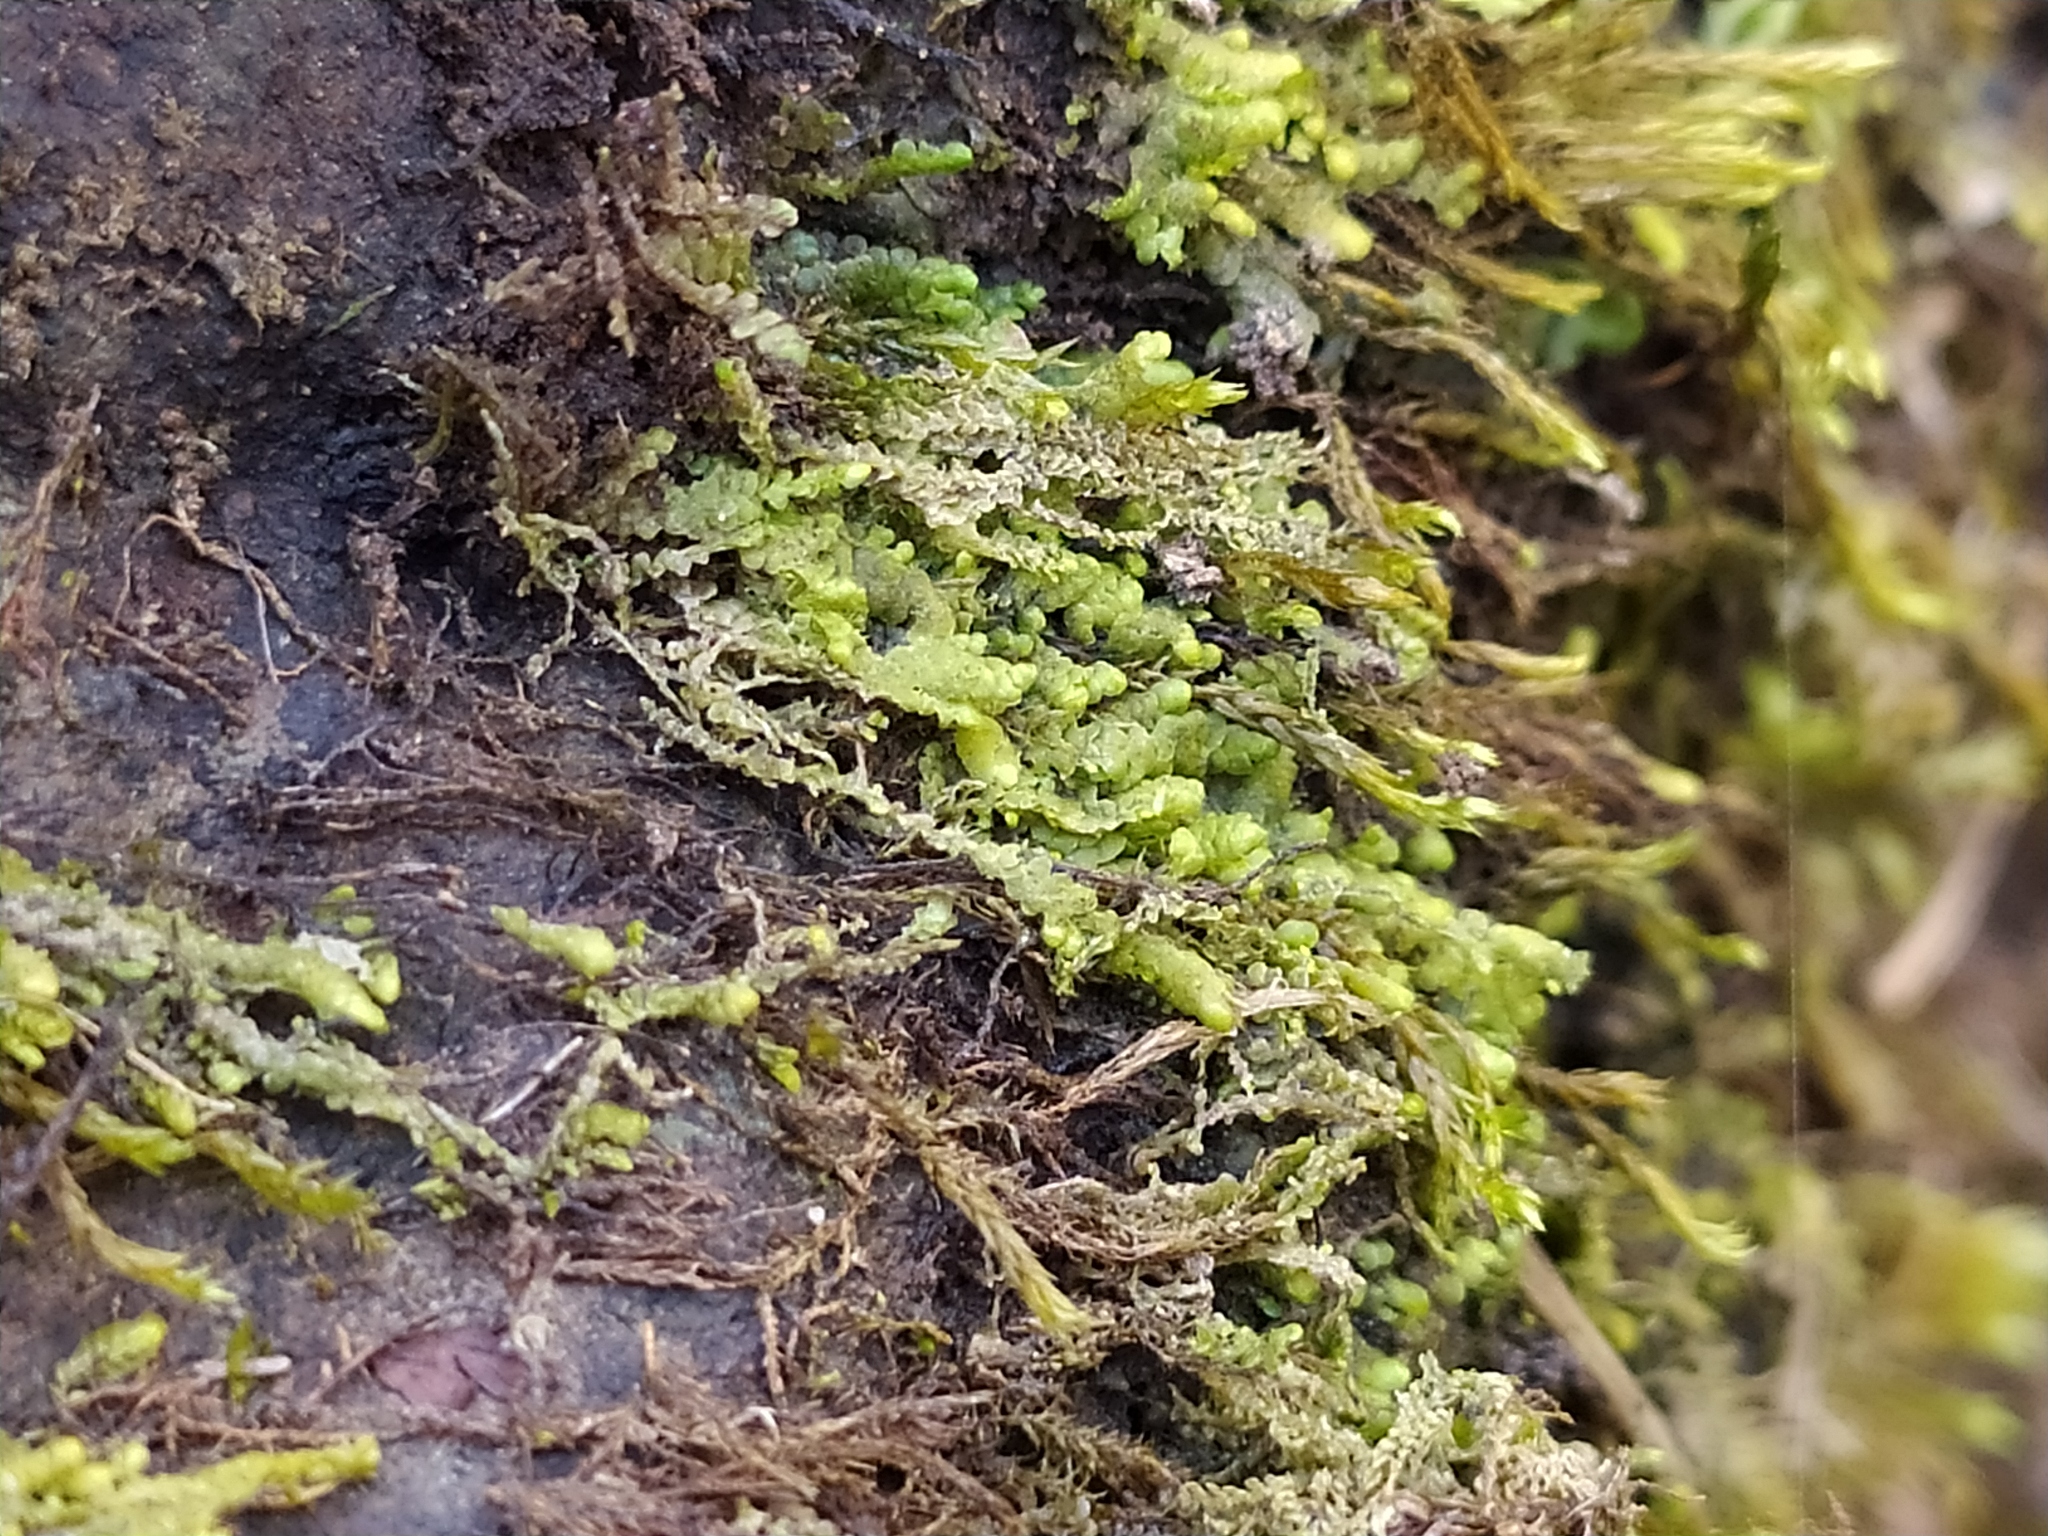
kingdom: Plantae
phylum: Marchantiophyta
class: Jungermanniopsida
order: Porellales
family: Lejeuneaceae
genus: Lejeunea
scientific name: Lejeunea cavifolia
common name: Least pouncewort
